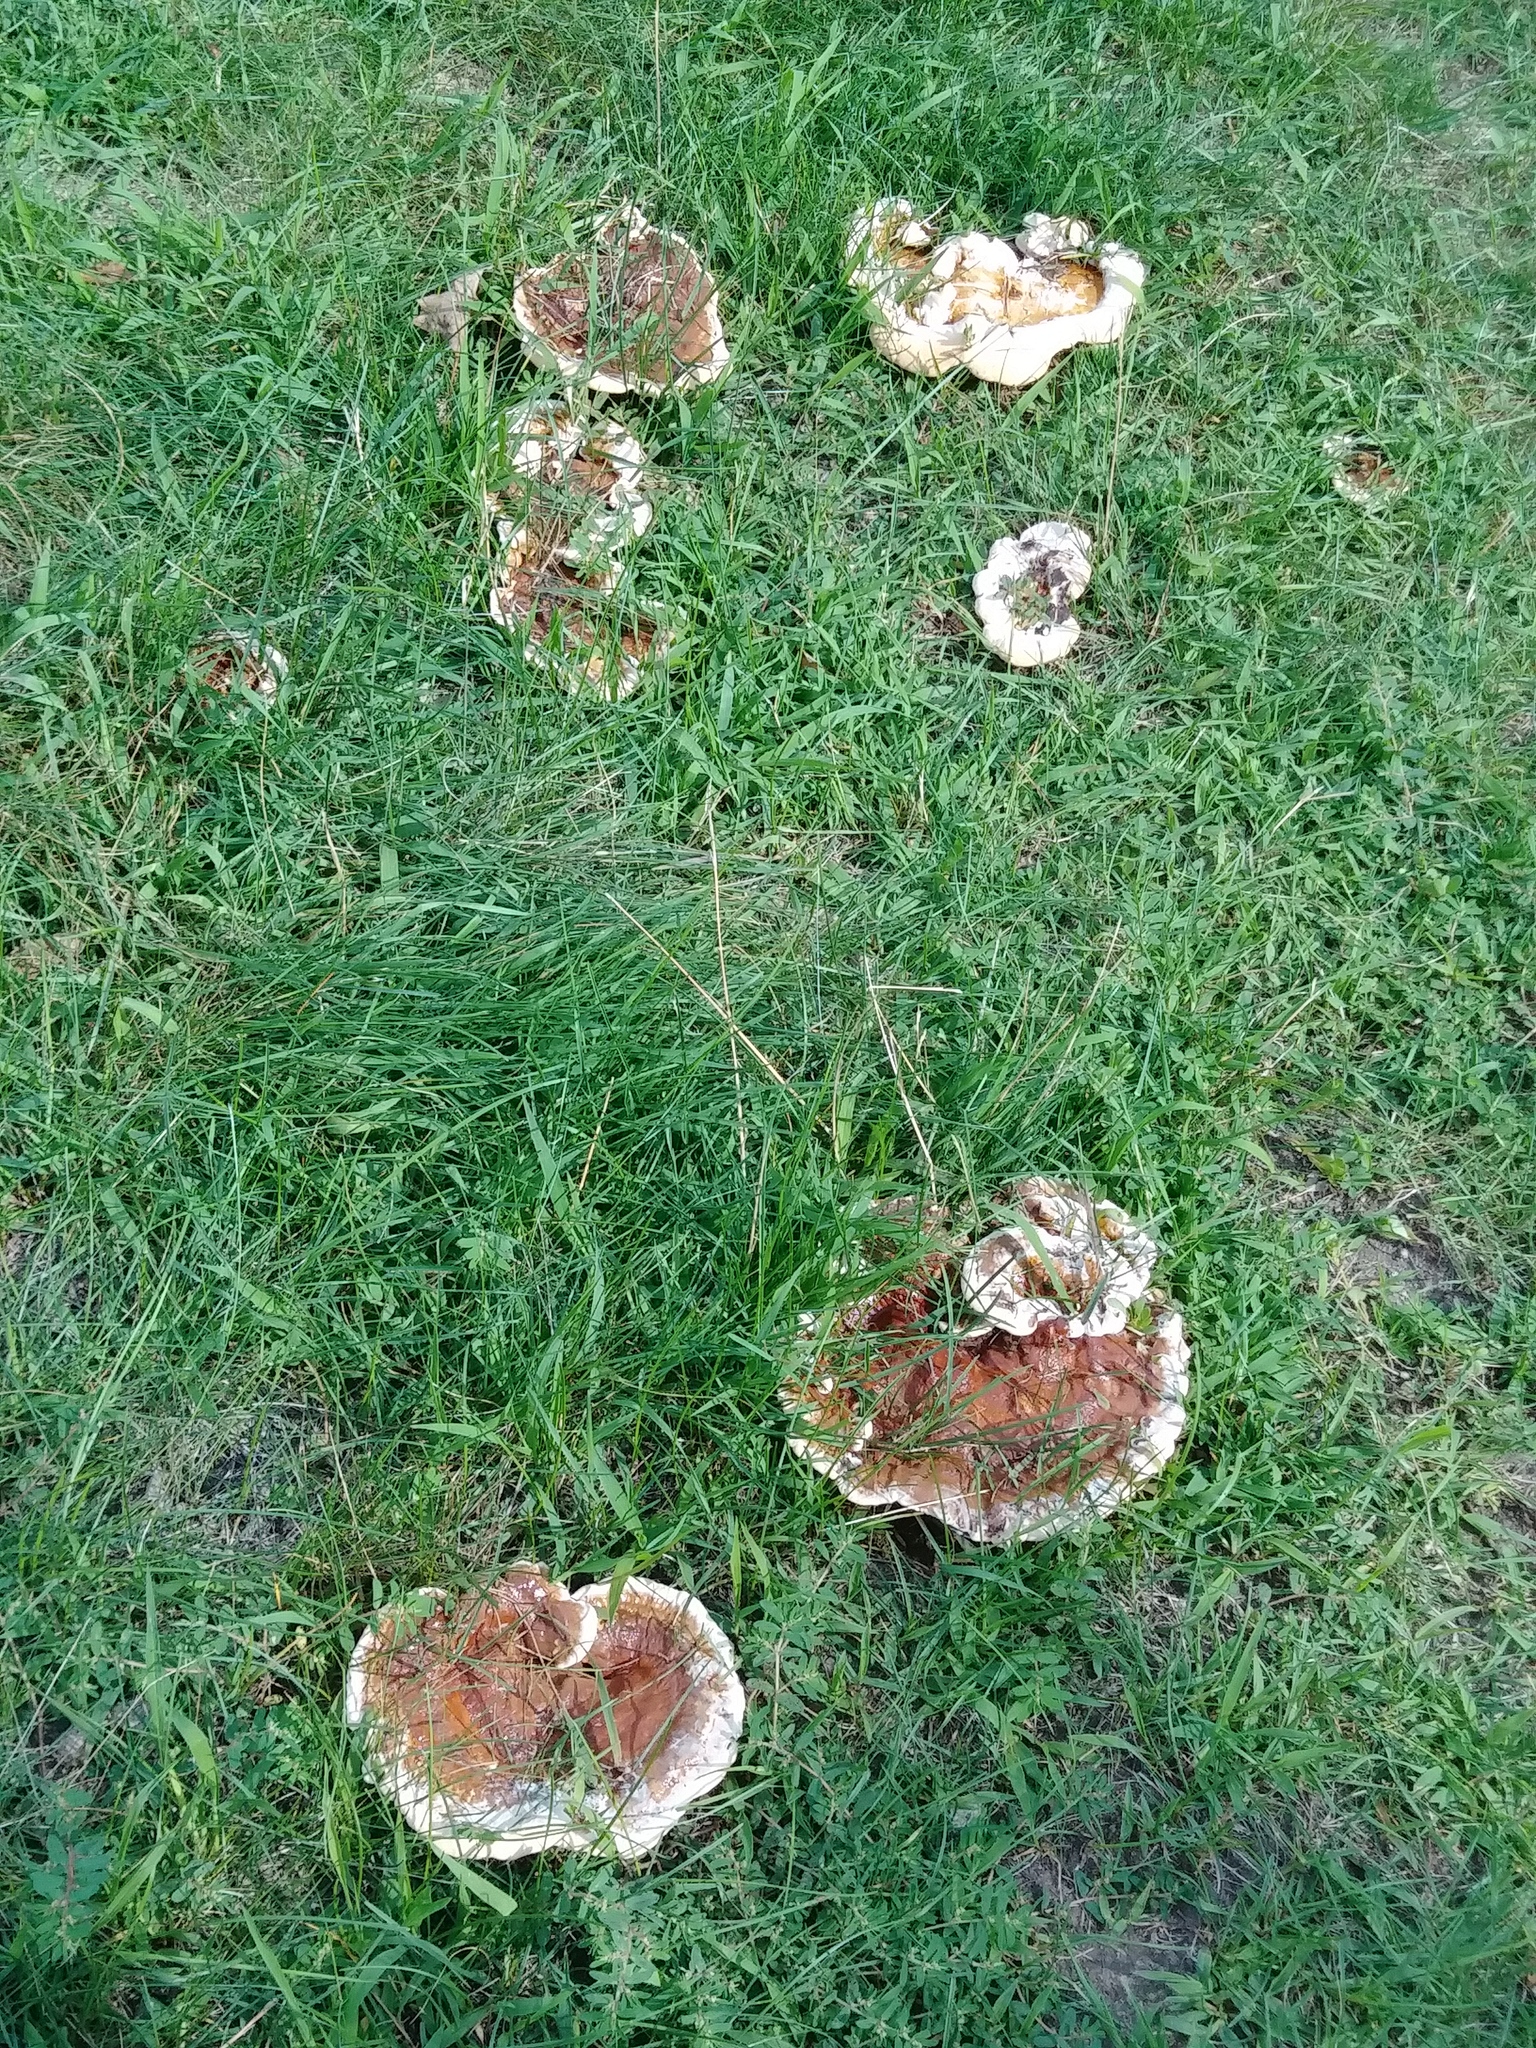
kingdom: Fungi
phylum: Basidiomycota
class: Agaricomycetes
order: Polyporales
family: Polyporaceae
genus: Ganoderma
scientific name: Ganoderma resinaceum
